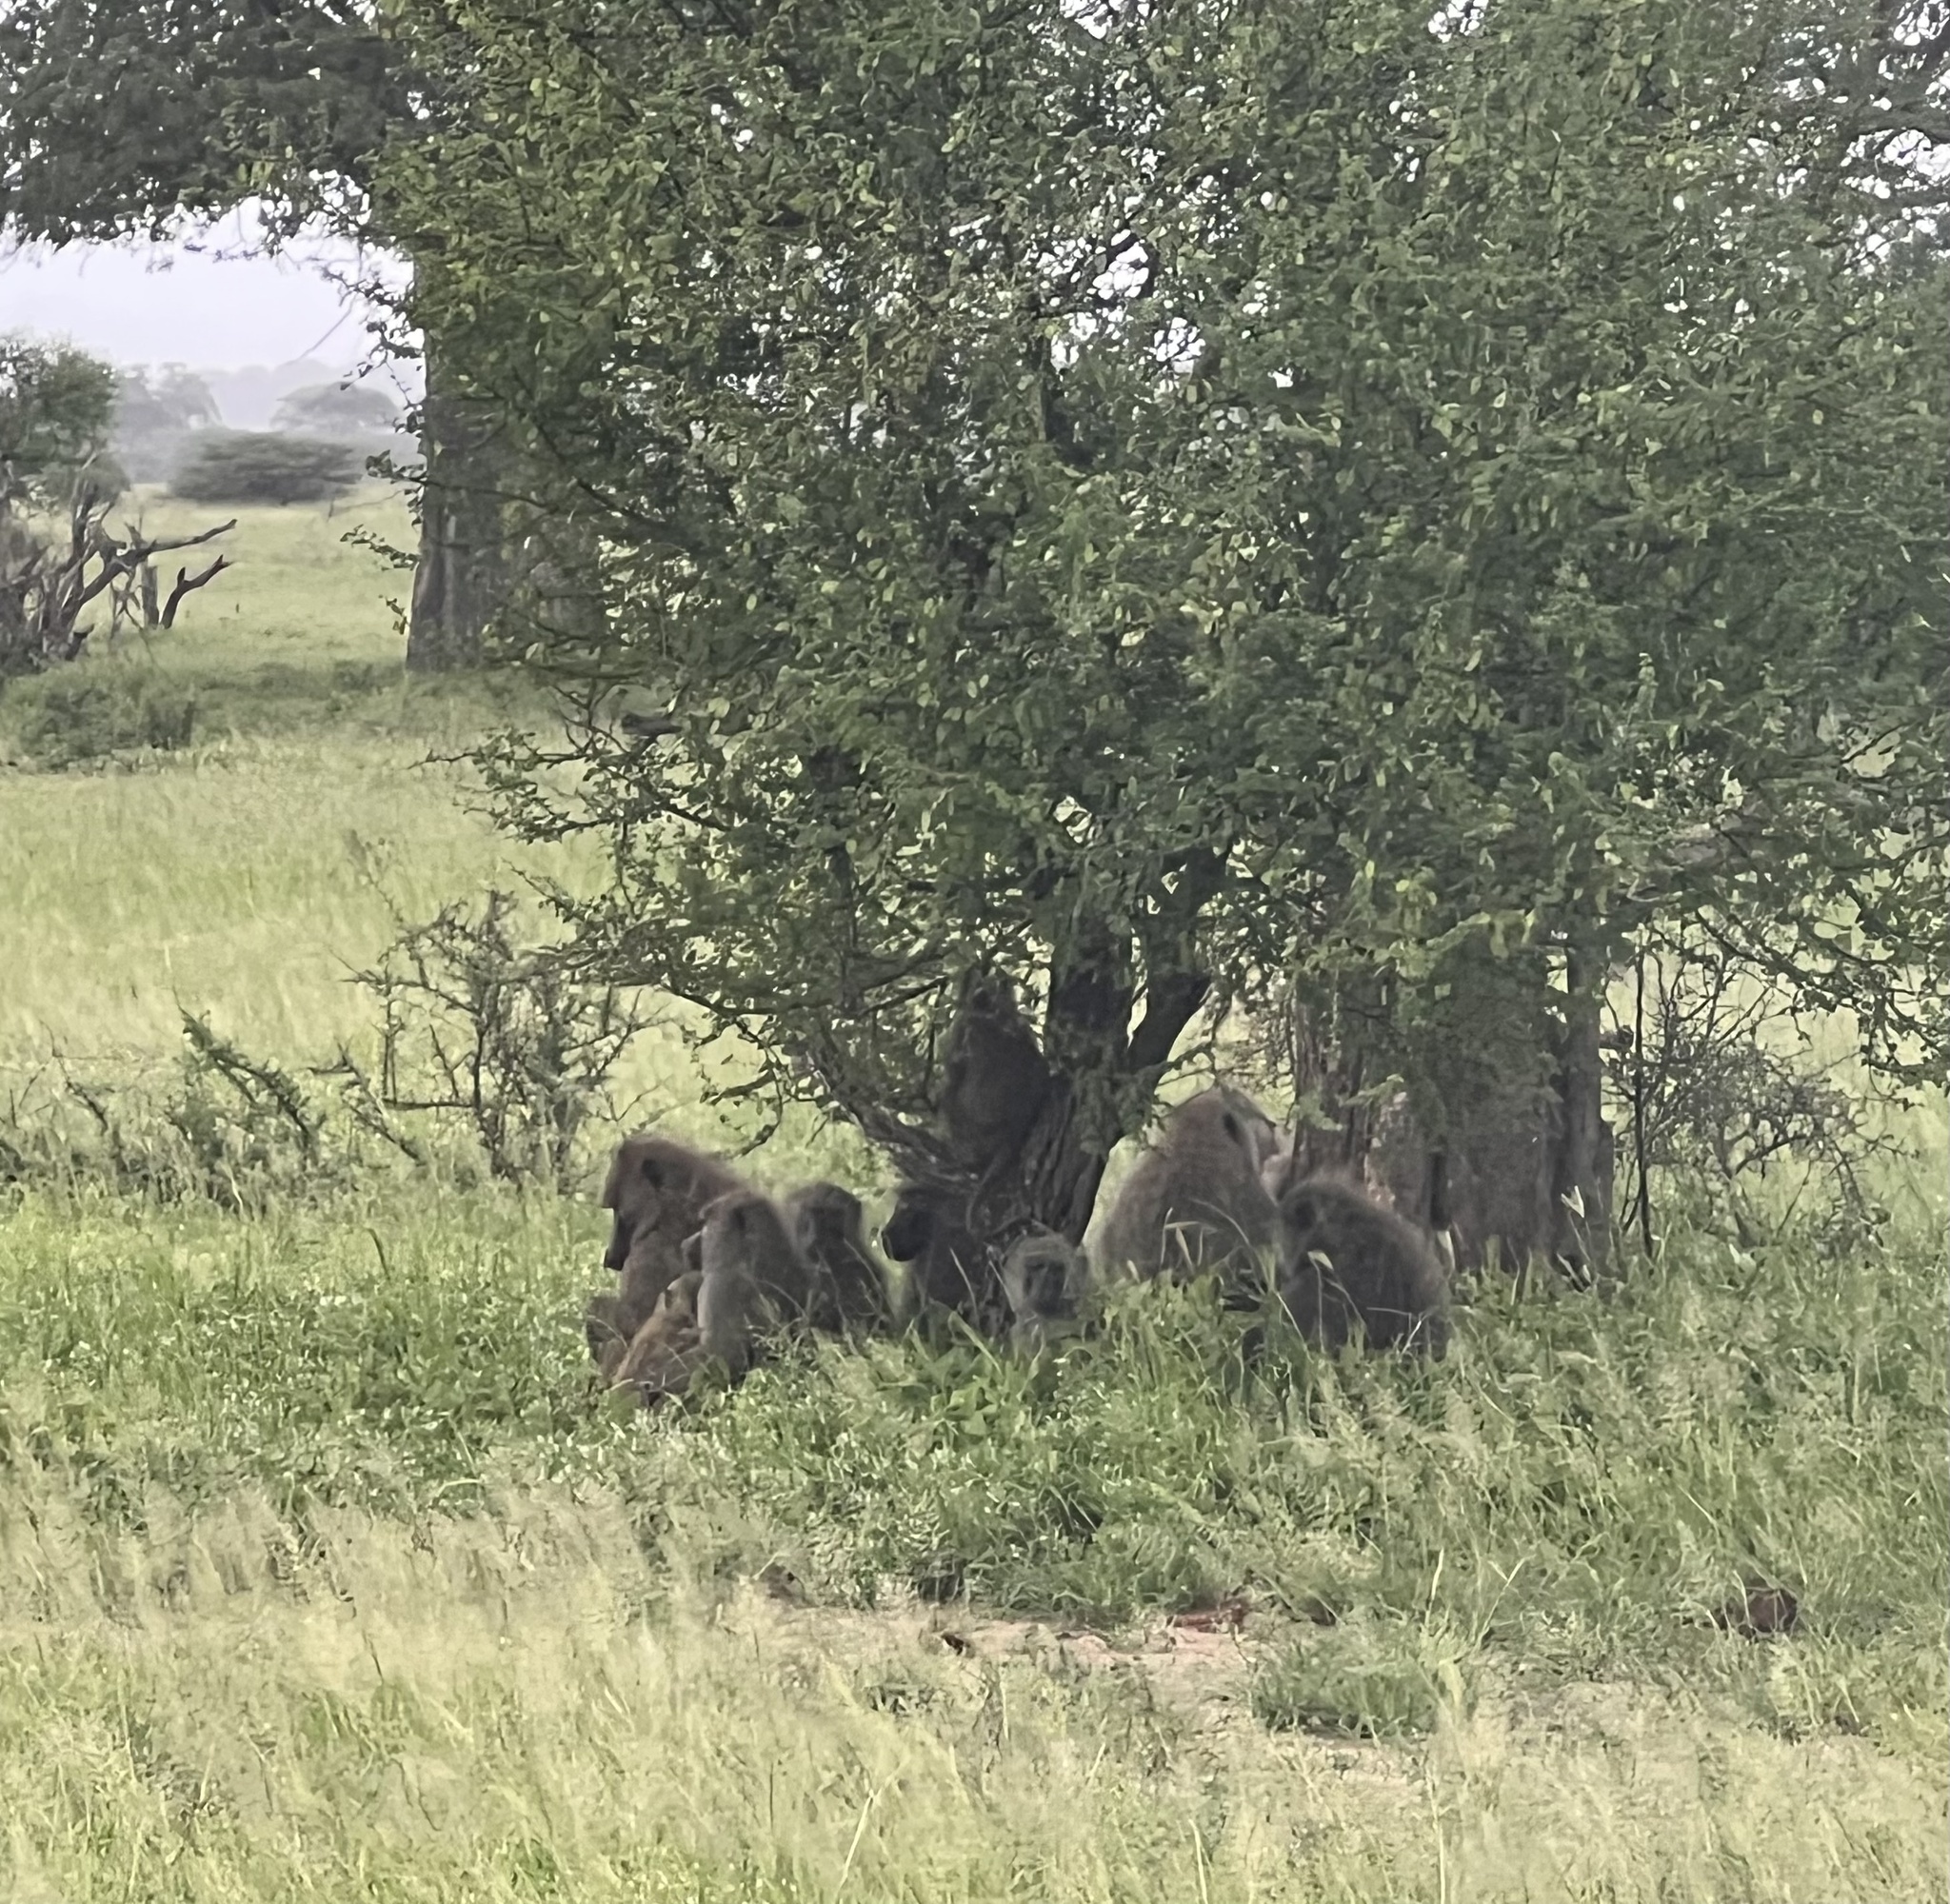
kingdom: Animalia
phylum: Chordata
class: Mammalia
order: Primates
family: Cercopithecidae
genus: Papio
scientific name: Papio anubis
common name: Olive baboon
